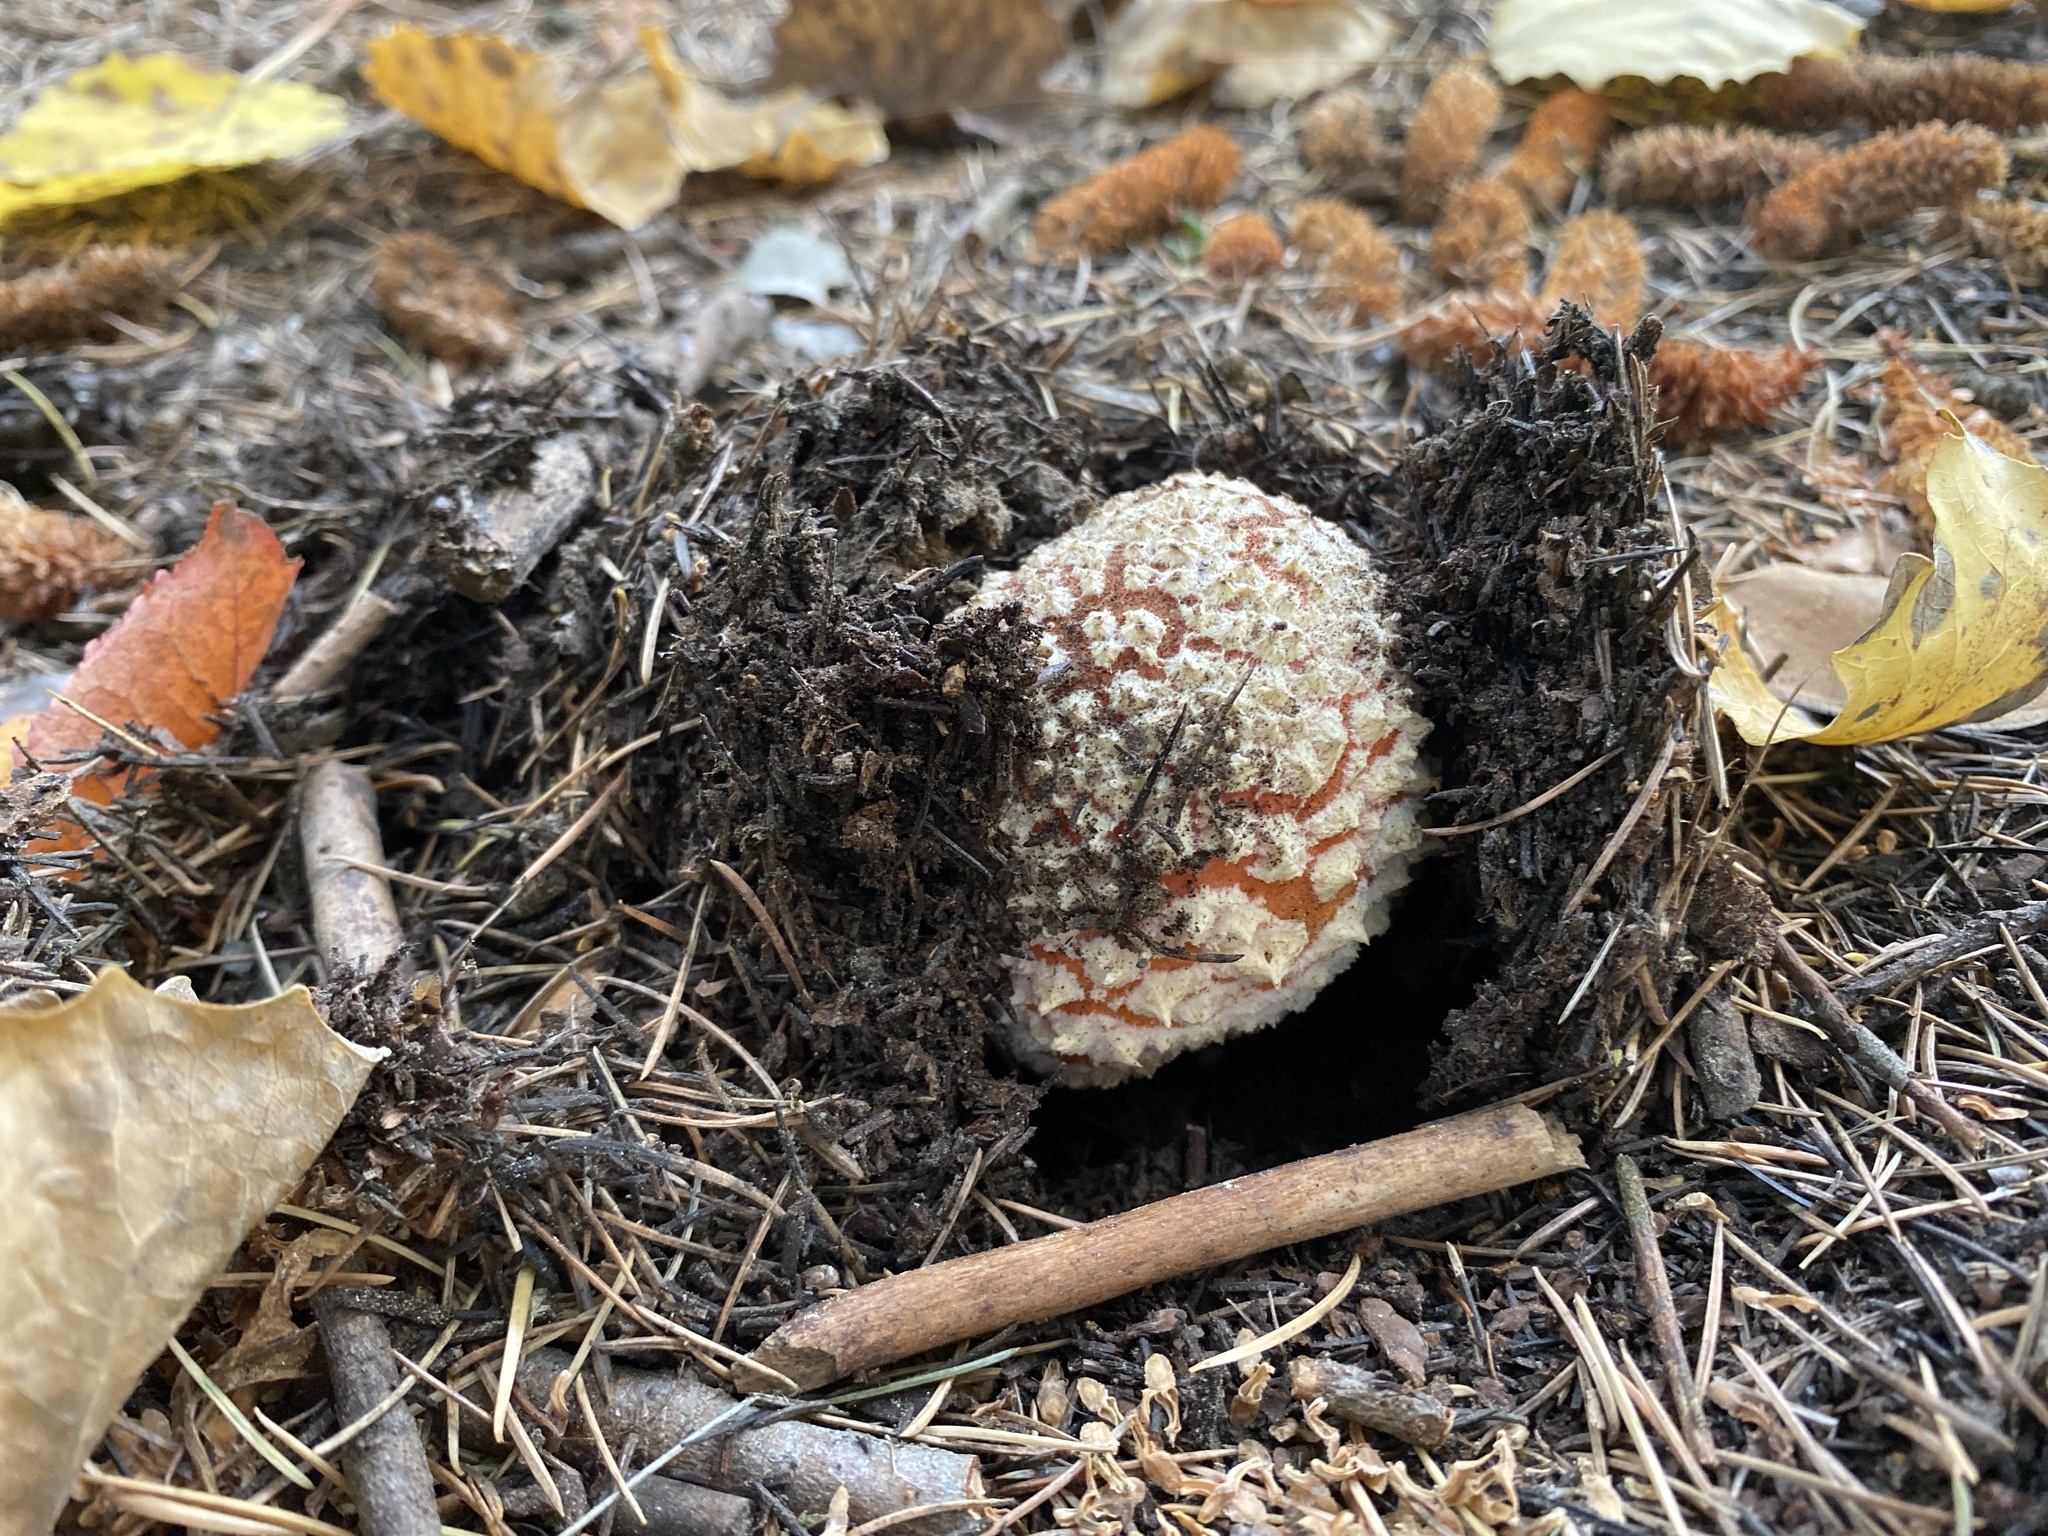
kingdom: Fungi
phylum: Basidiomycota
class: Agaricomycetes
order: Agaricales
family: Amanitaceae
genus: Amanita
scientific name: Amanita muscaria
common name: Fly agaric
